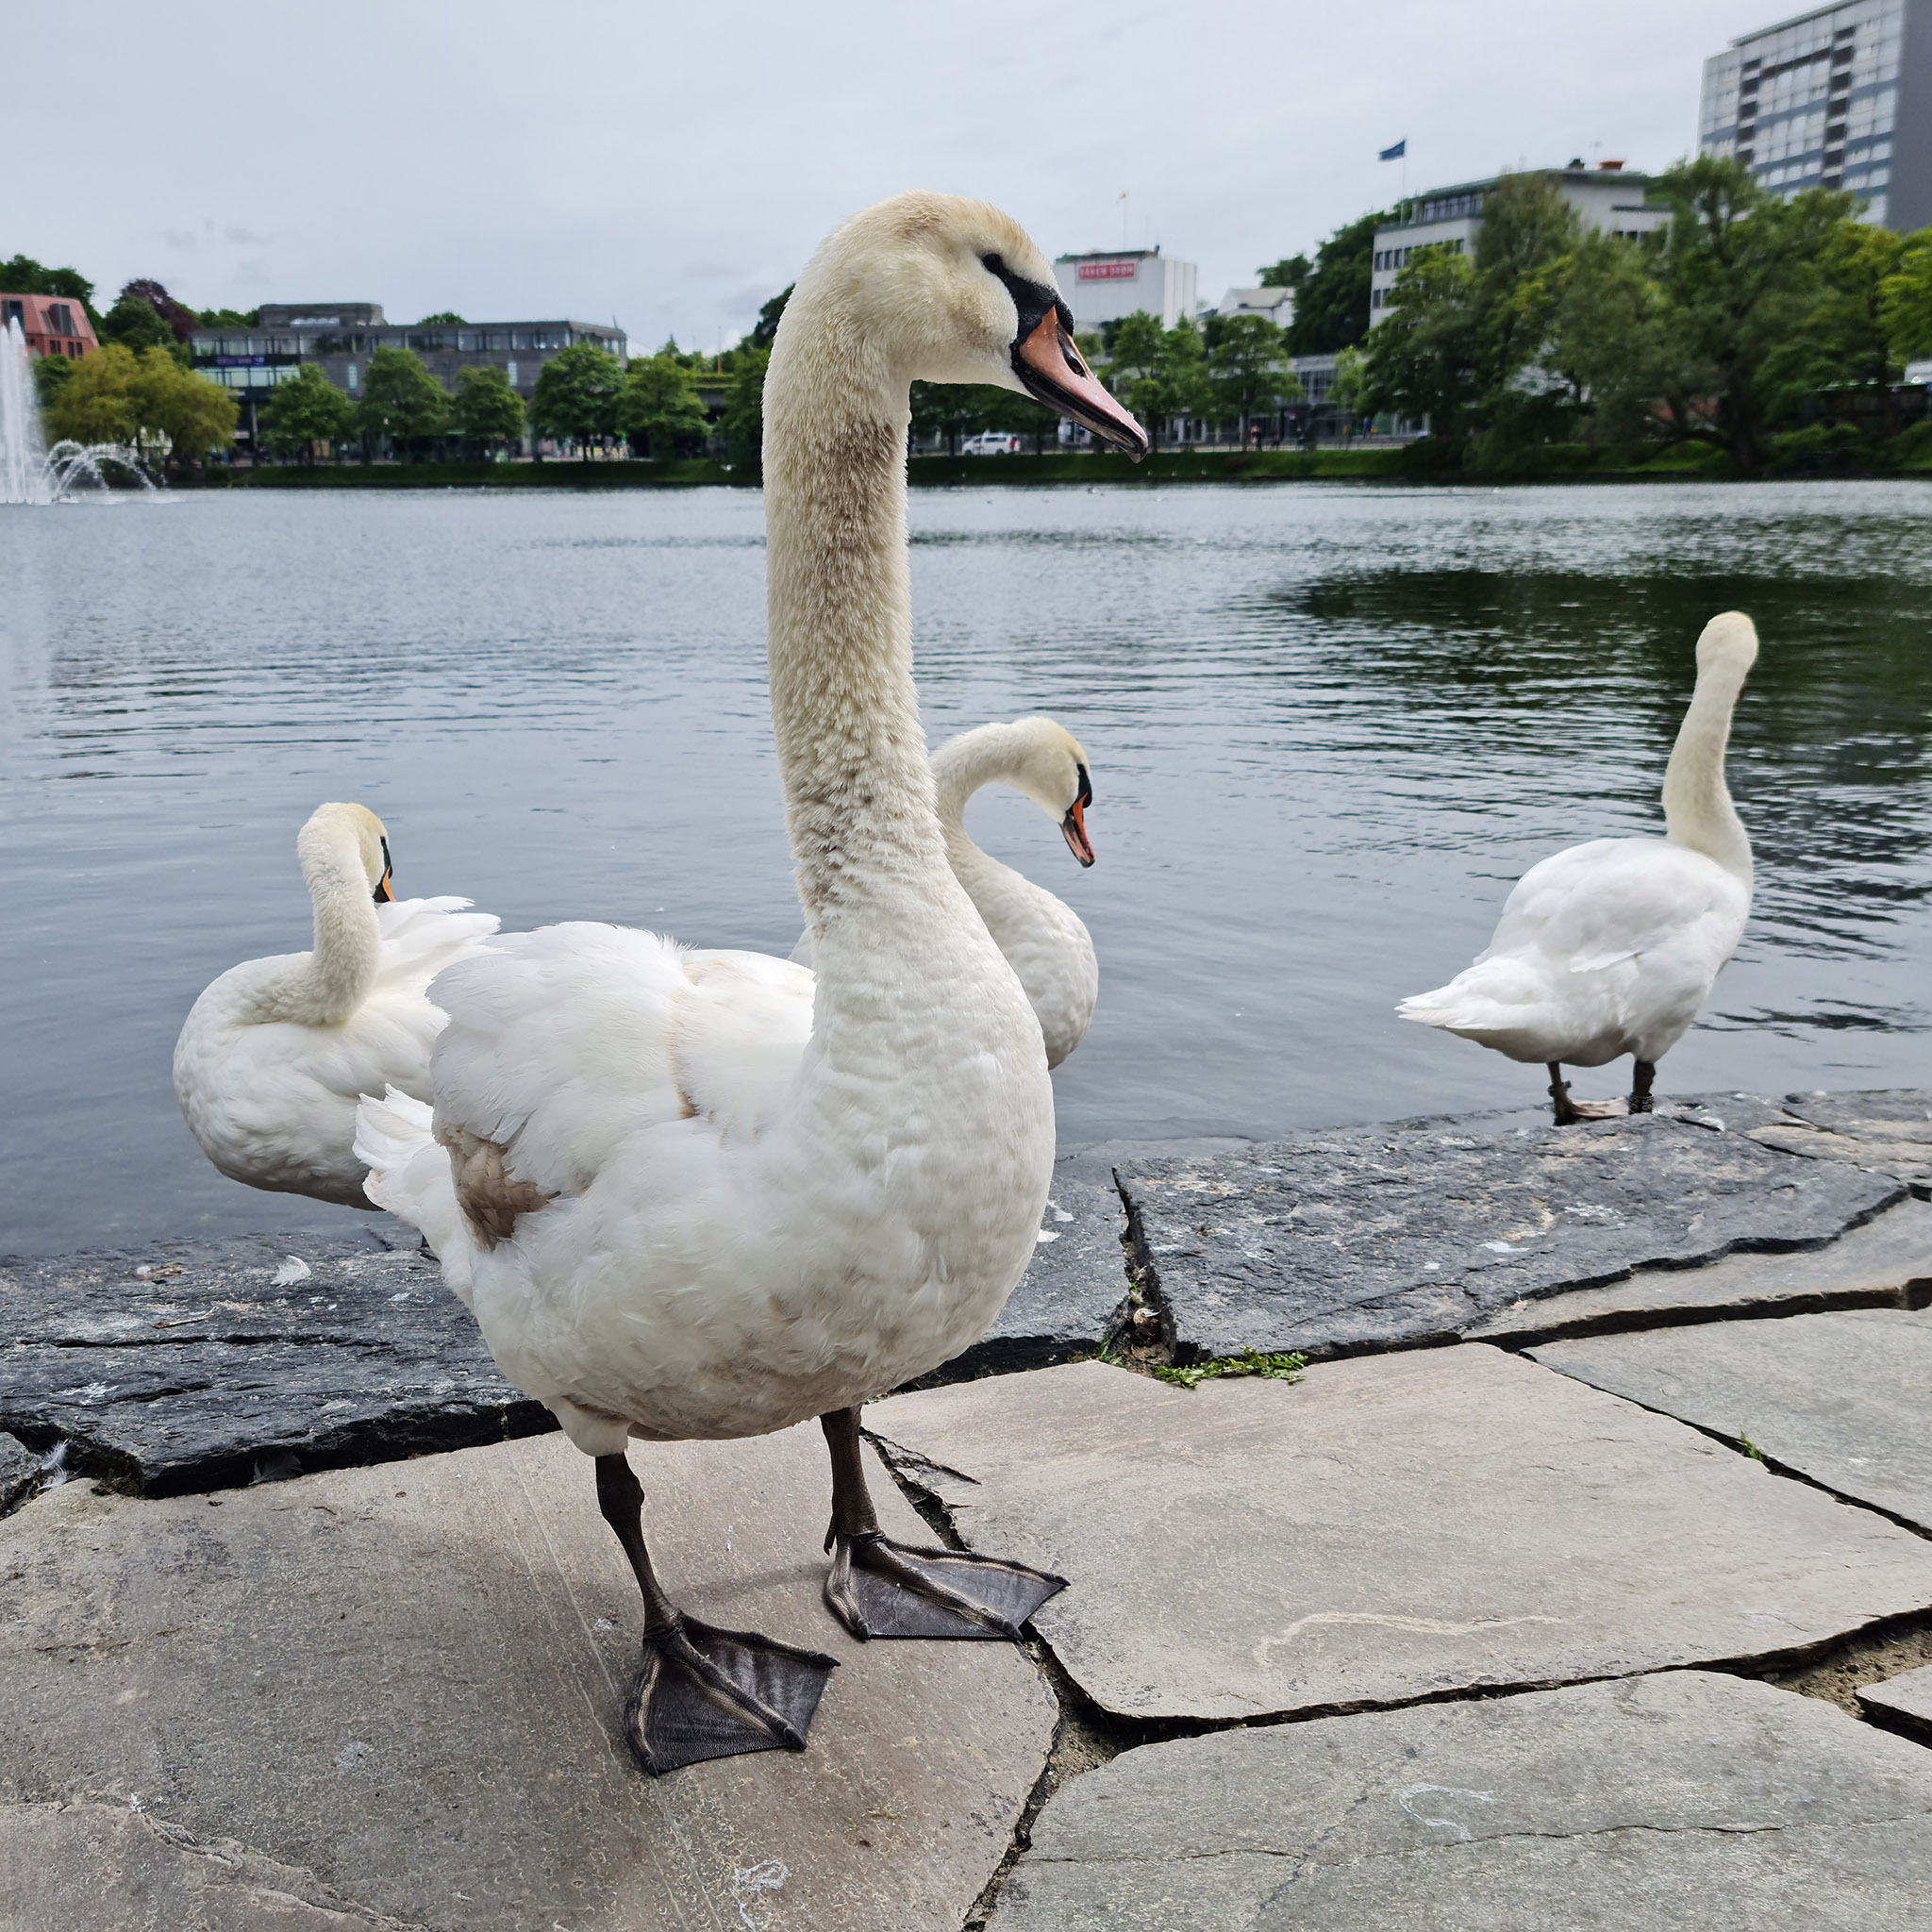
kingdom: Animalia
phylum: Chordata
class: Aves
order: Anseriformes
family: Anatidae
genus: Cygnus
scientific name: Cygnus olor
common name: Mute swan
